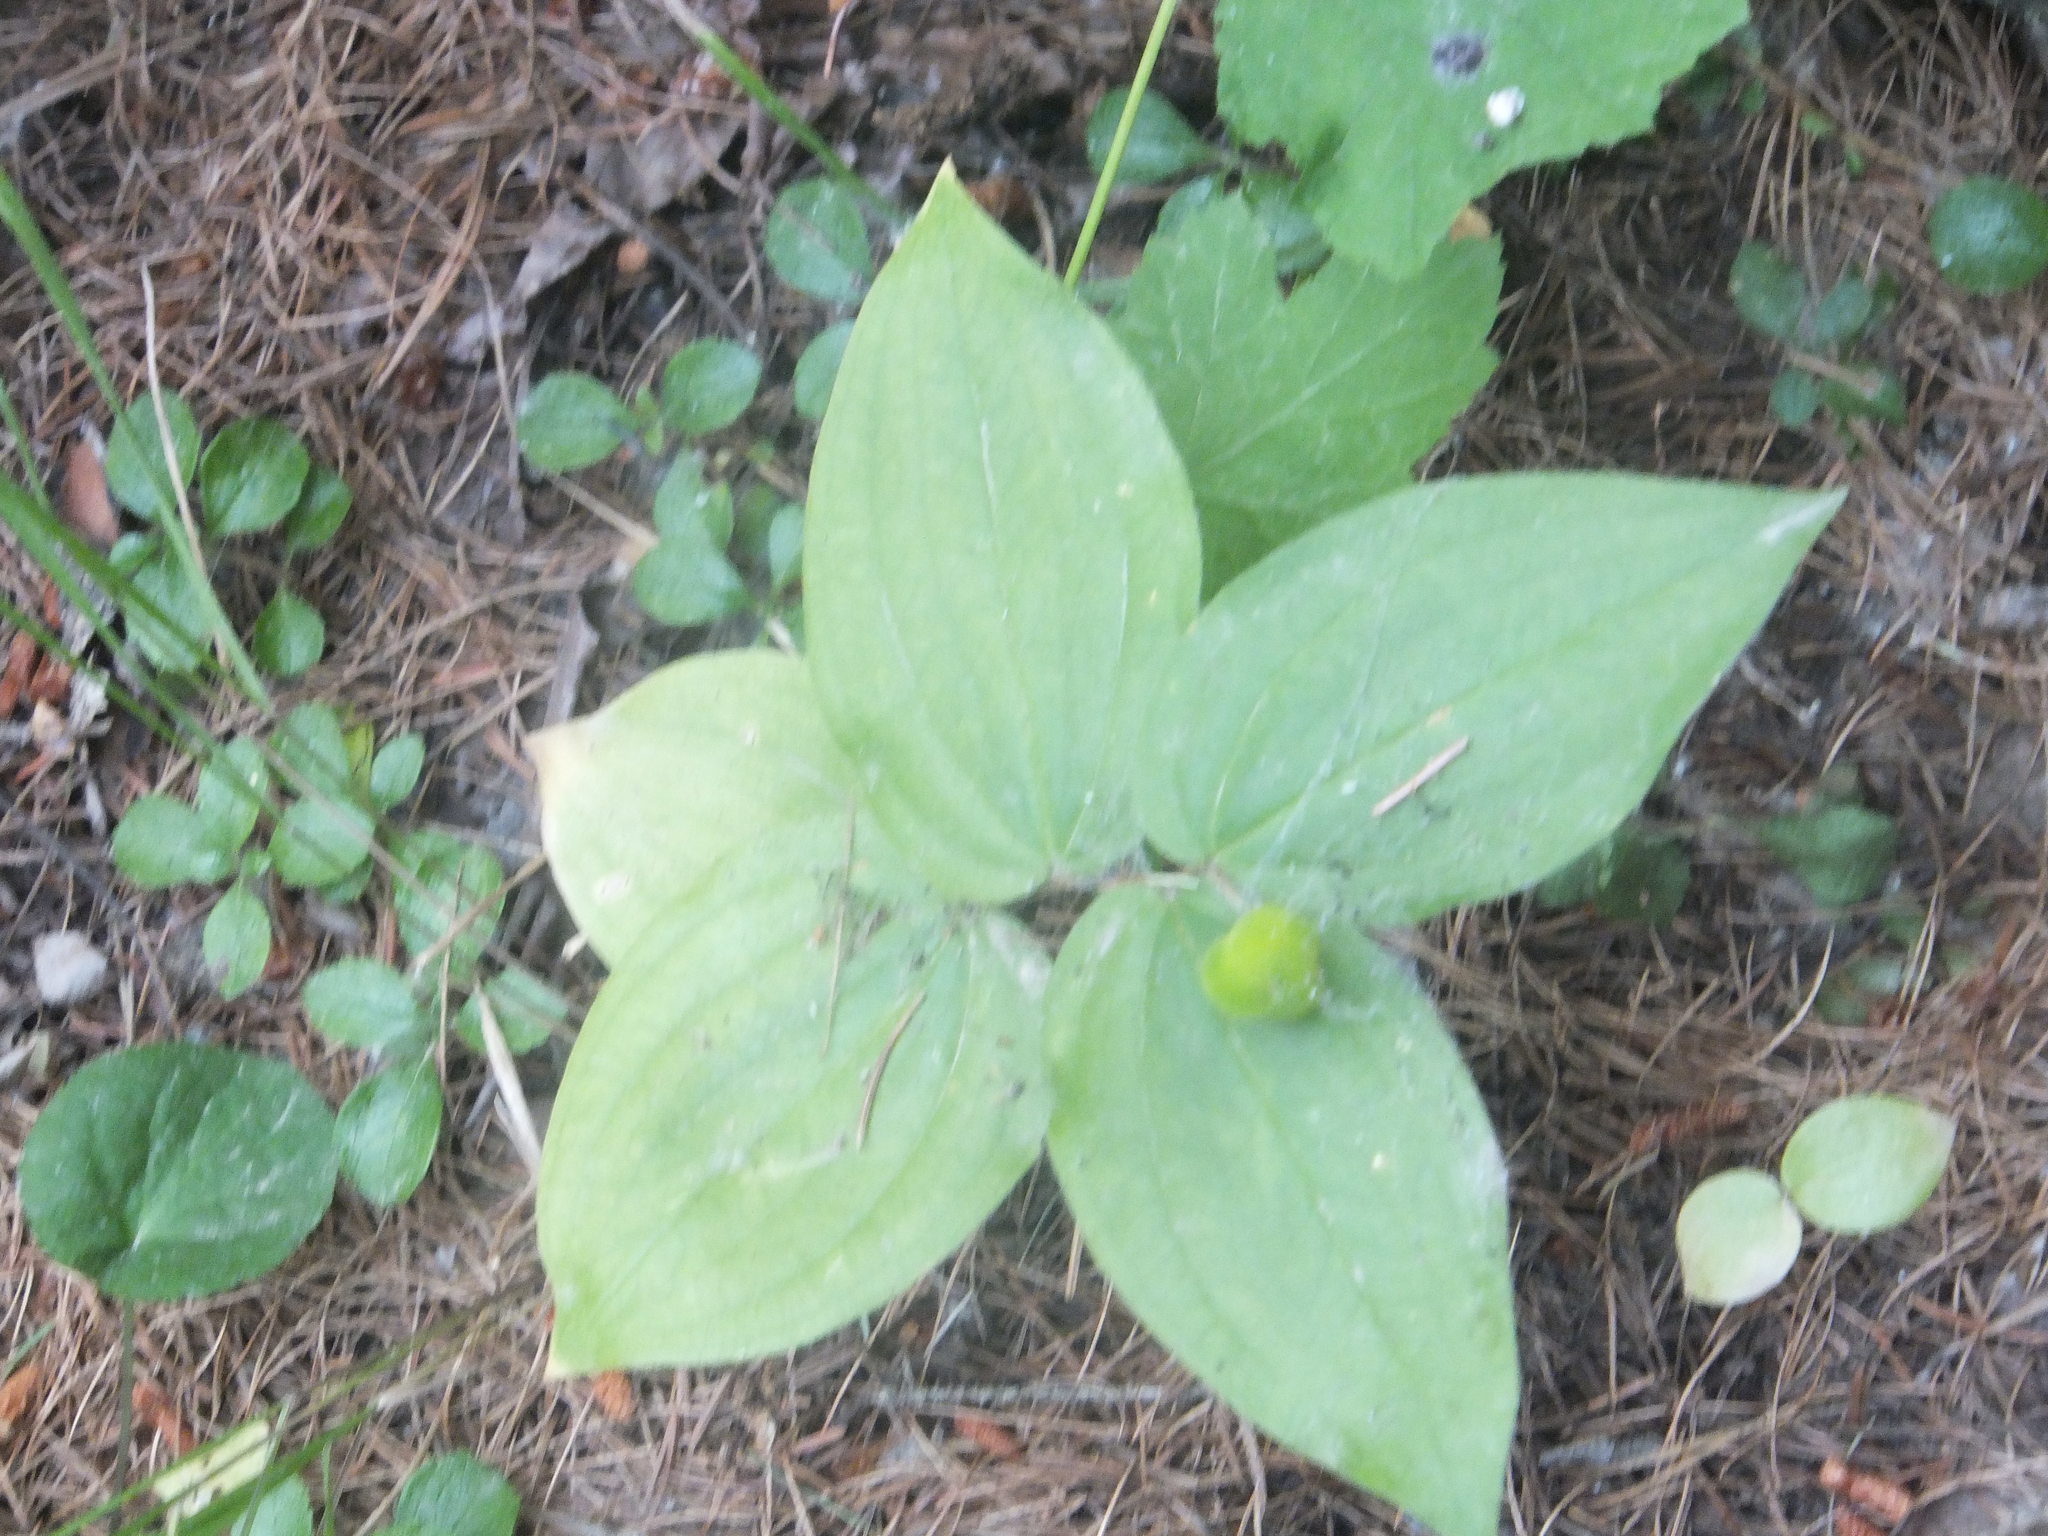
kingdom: Plantae
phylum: Tracheophyta
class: Liliopsida
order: Liliales
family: Liliaceae
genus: Prosartes
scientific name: Prosartes trachycarpa
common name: Rough-fruit fairy-bells
